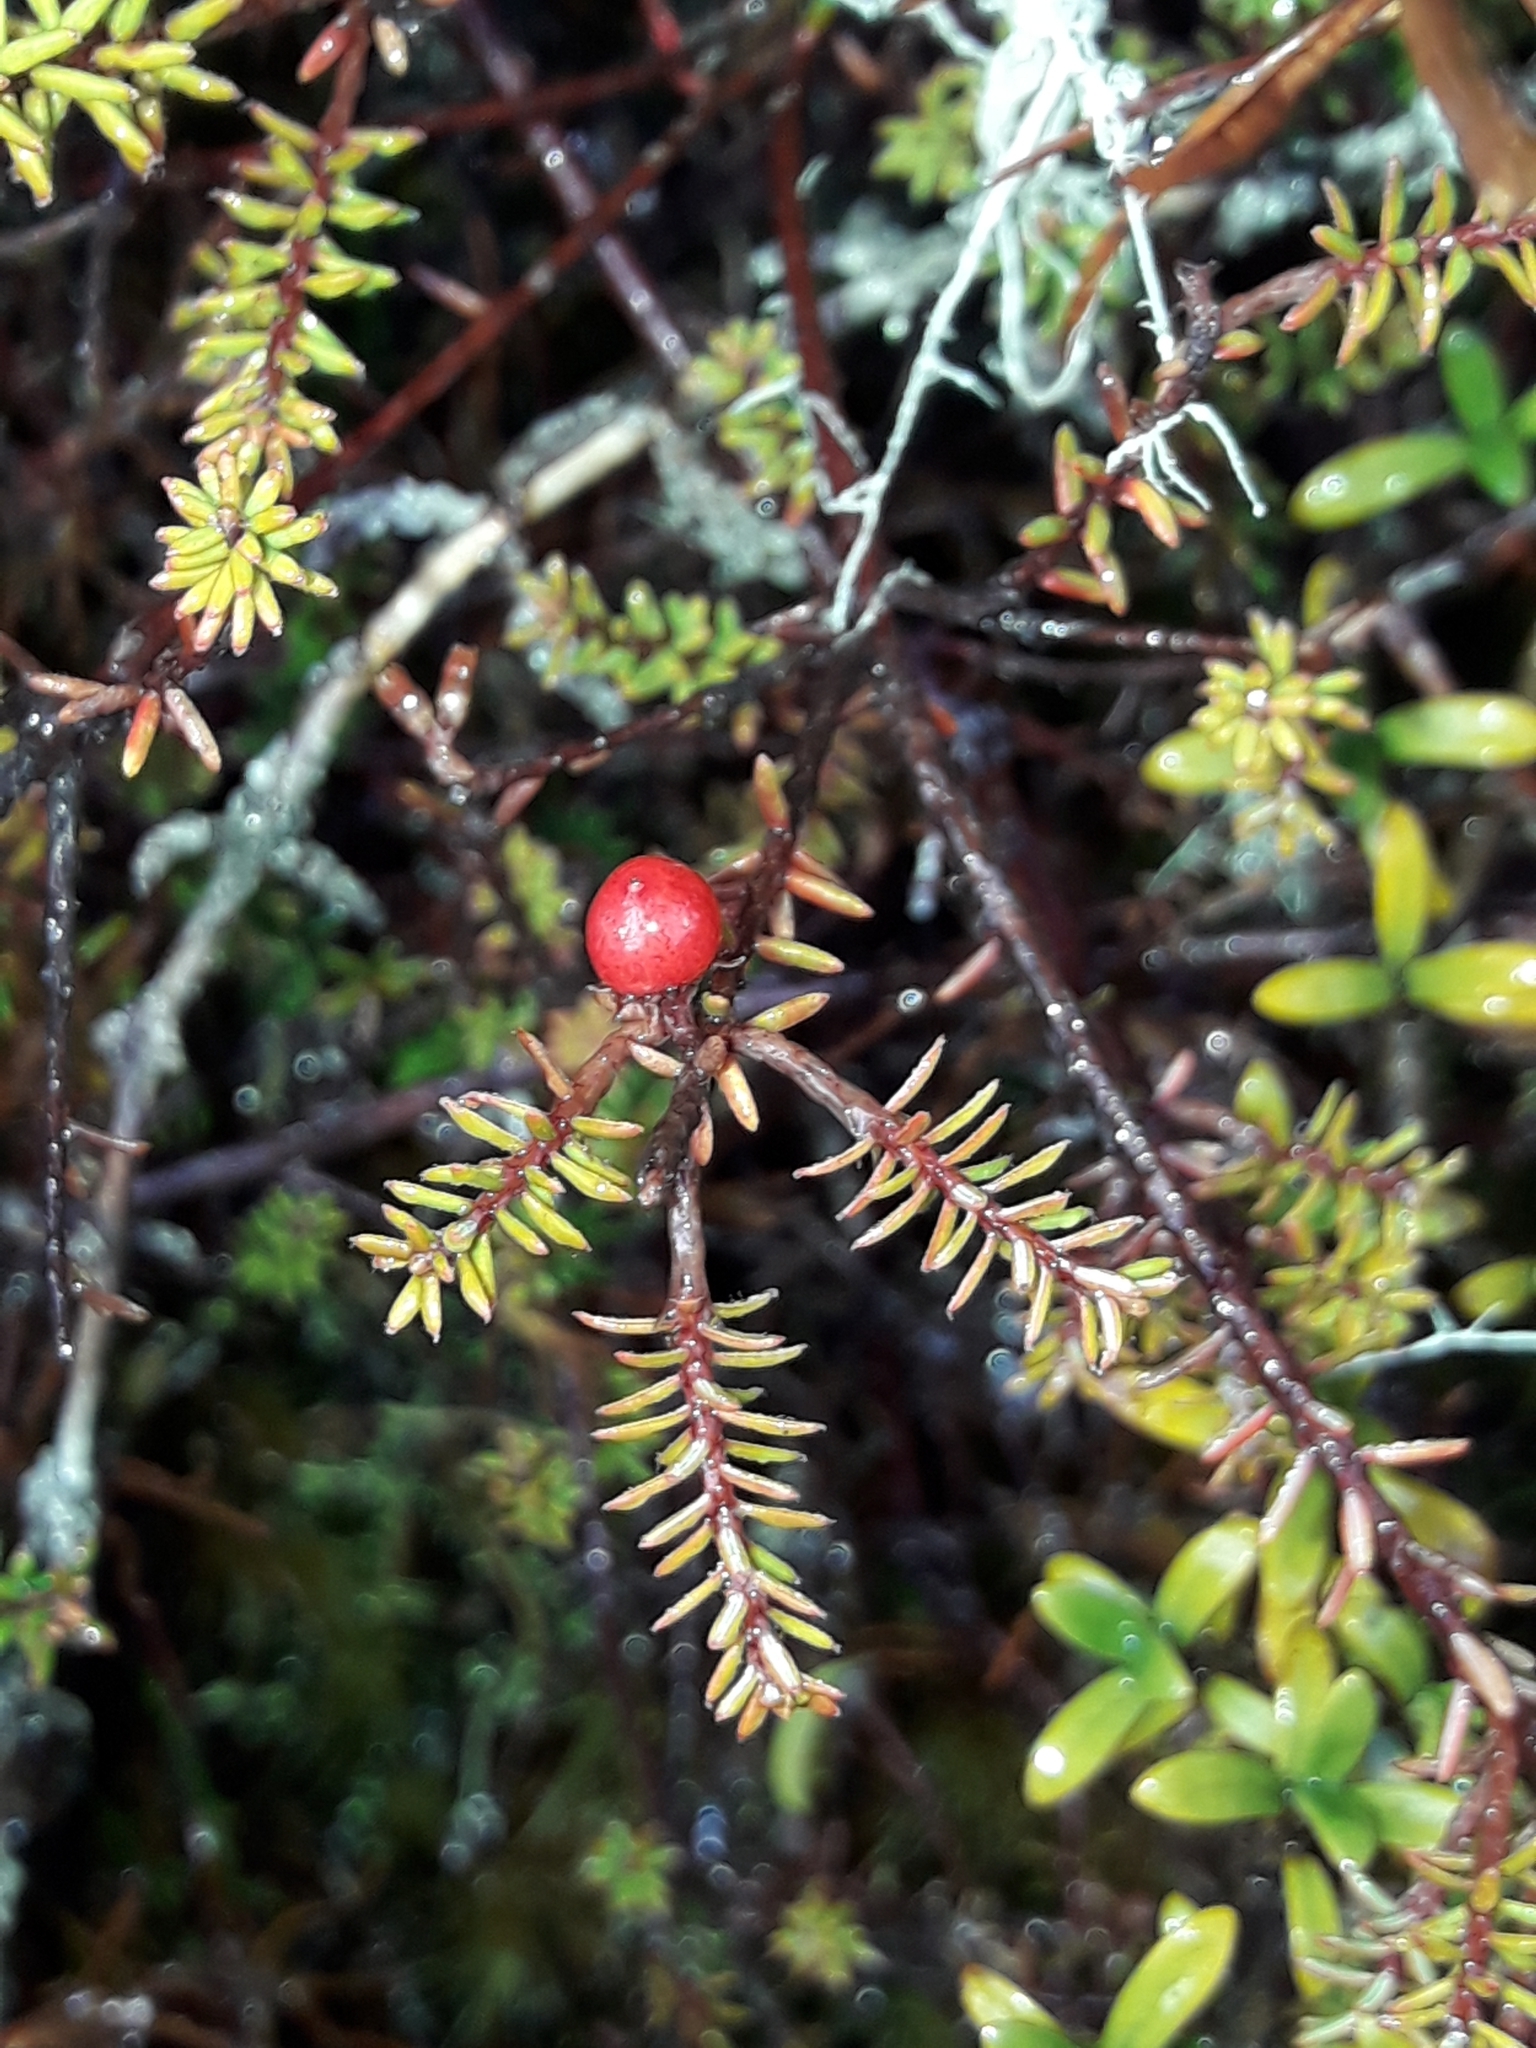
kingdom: Plantae
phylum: Tracheophyta
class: Magnoliopsida
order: Ericales
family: Ericaceae
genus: Androstoma
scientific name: Androstoma empetrifolia
